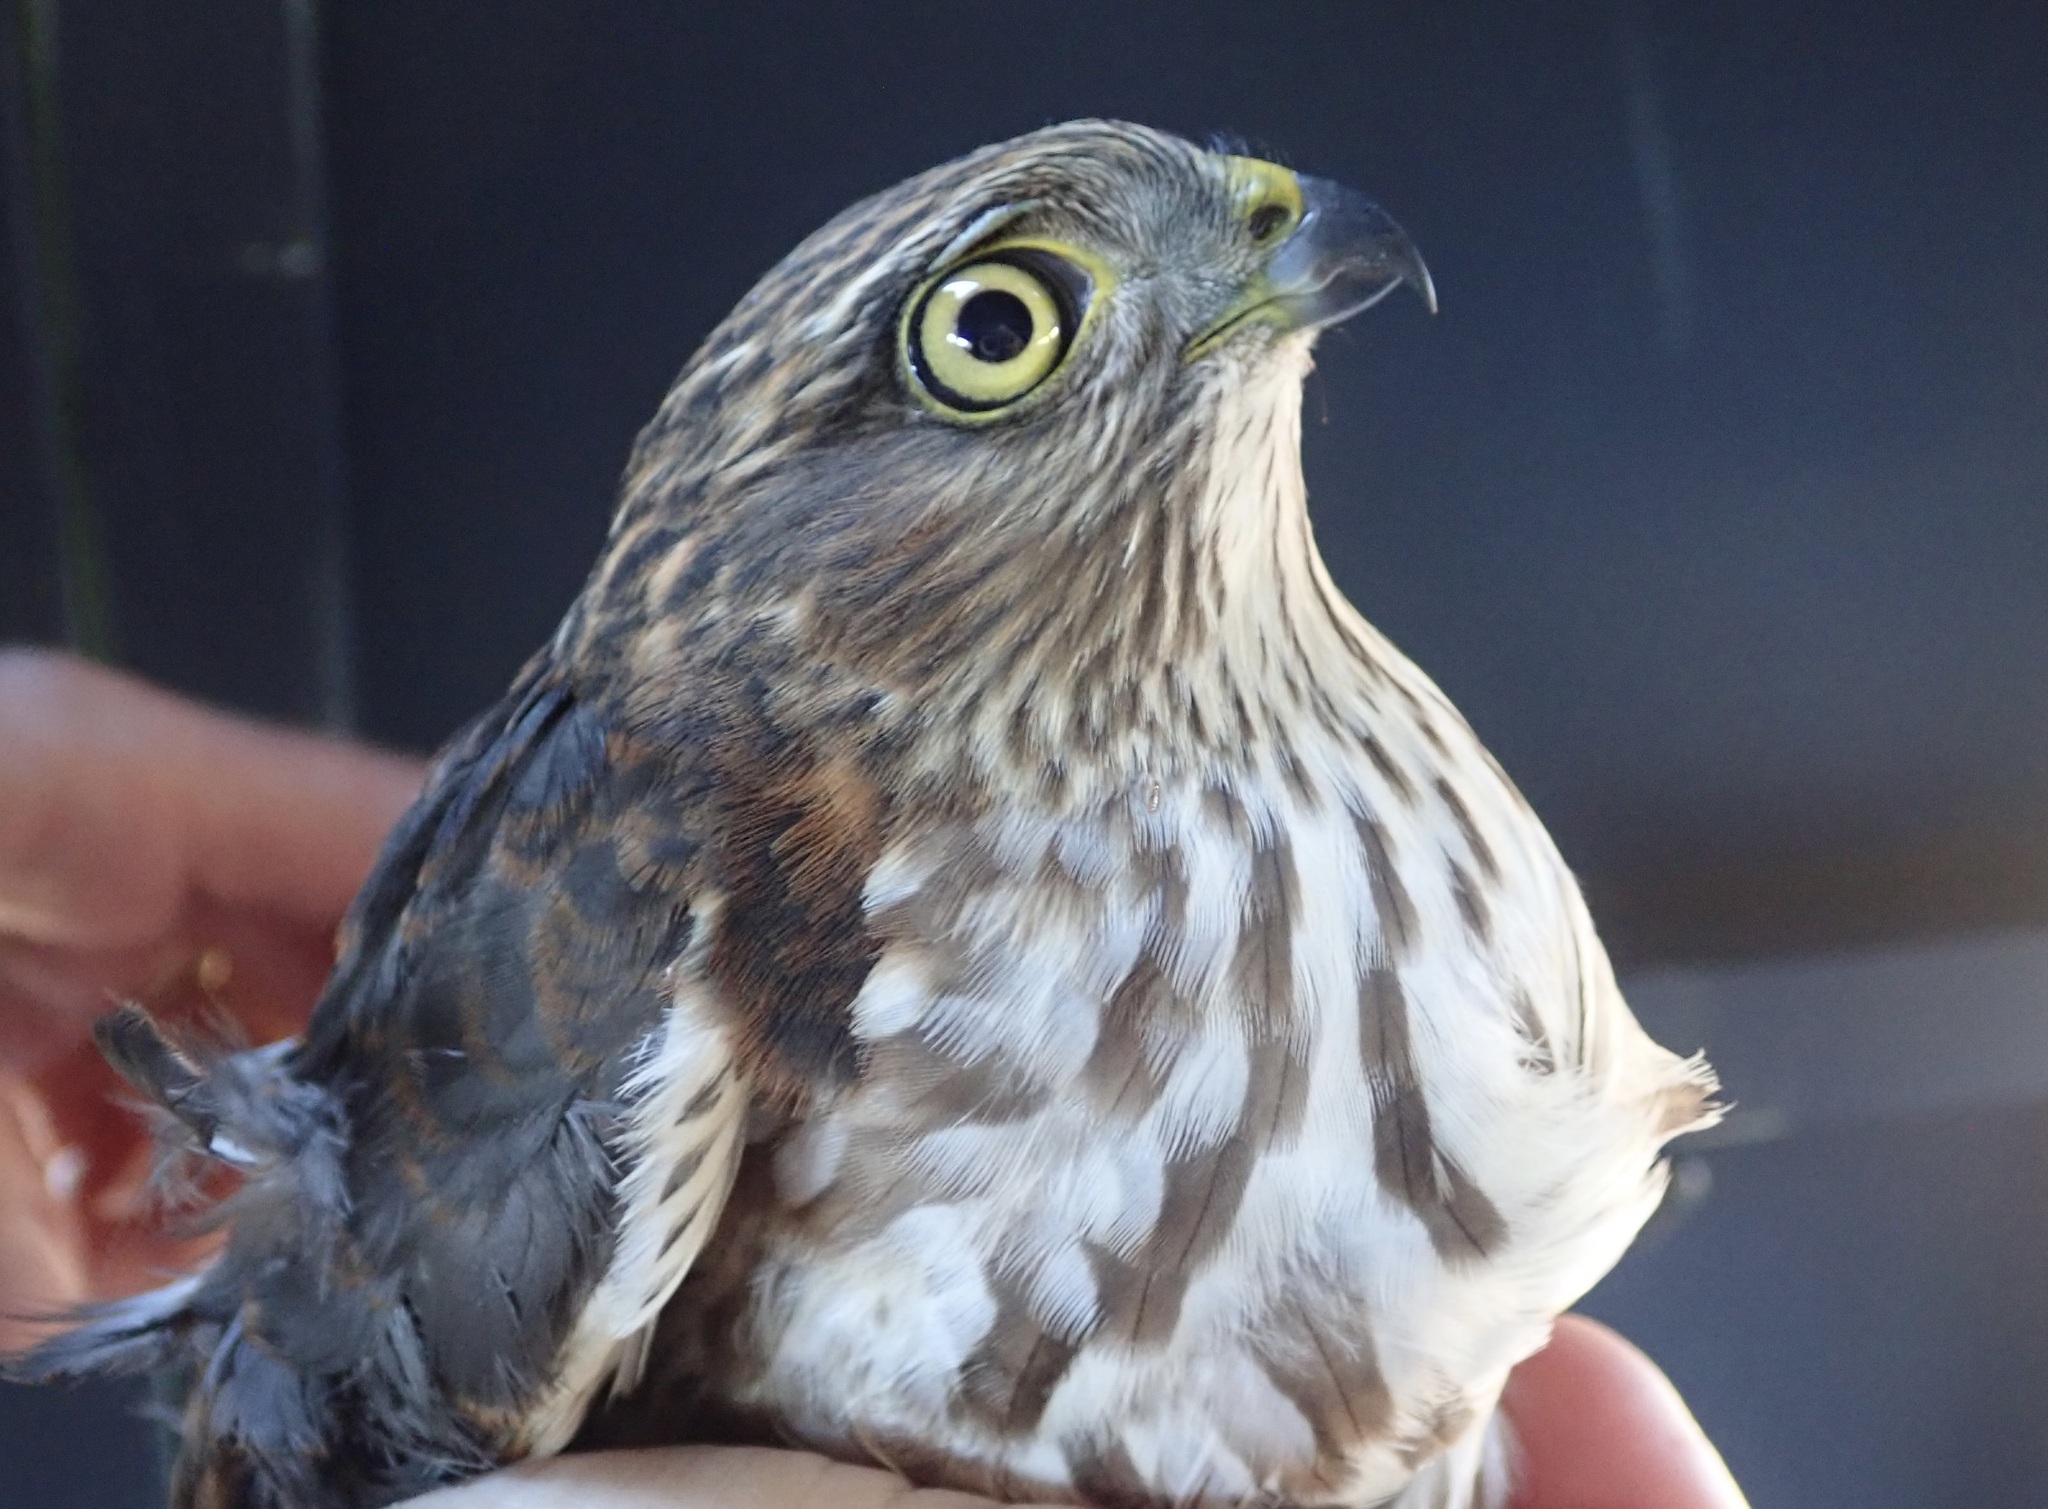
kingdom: Animalia
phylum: Chordata
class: Aves
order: Accipitriformes
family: Accipitridae
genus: Accipiter
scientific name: Accipiter striatus
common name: Sharp-shinned hawk
